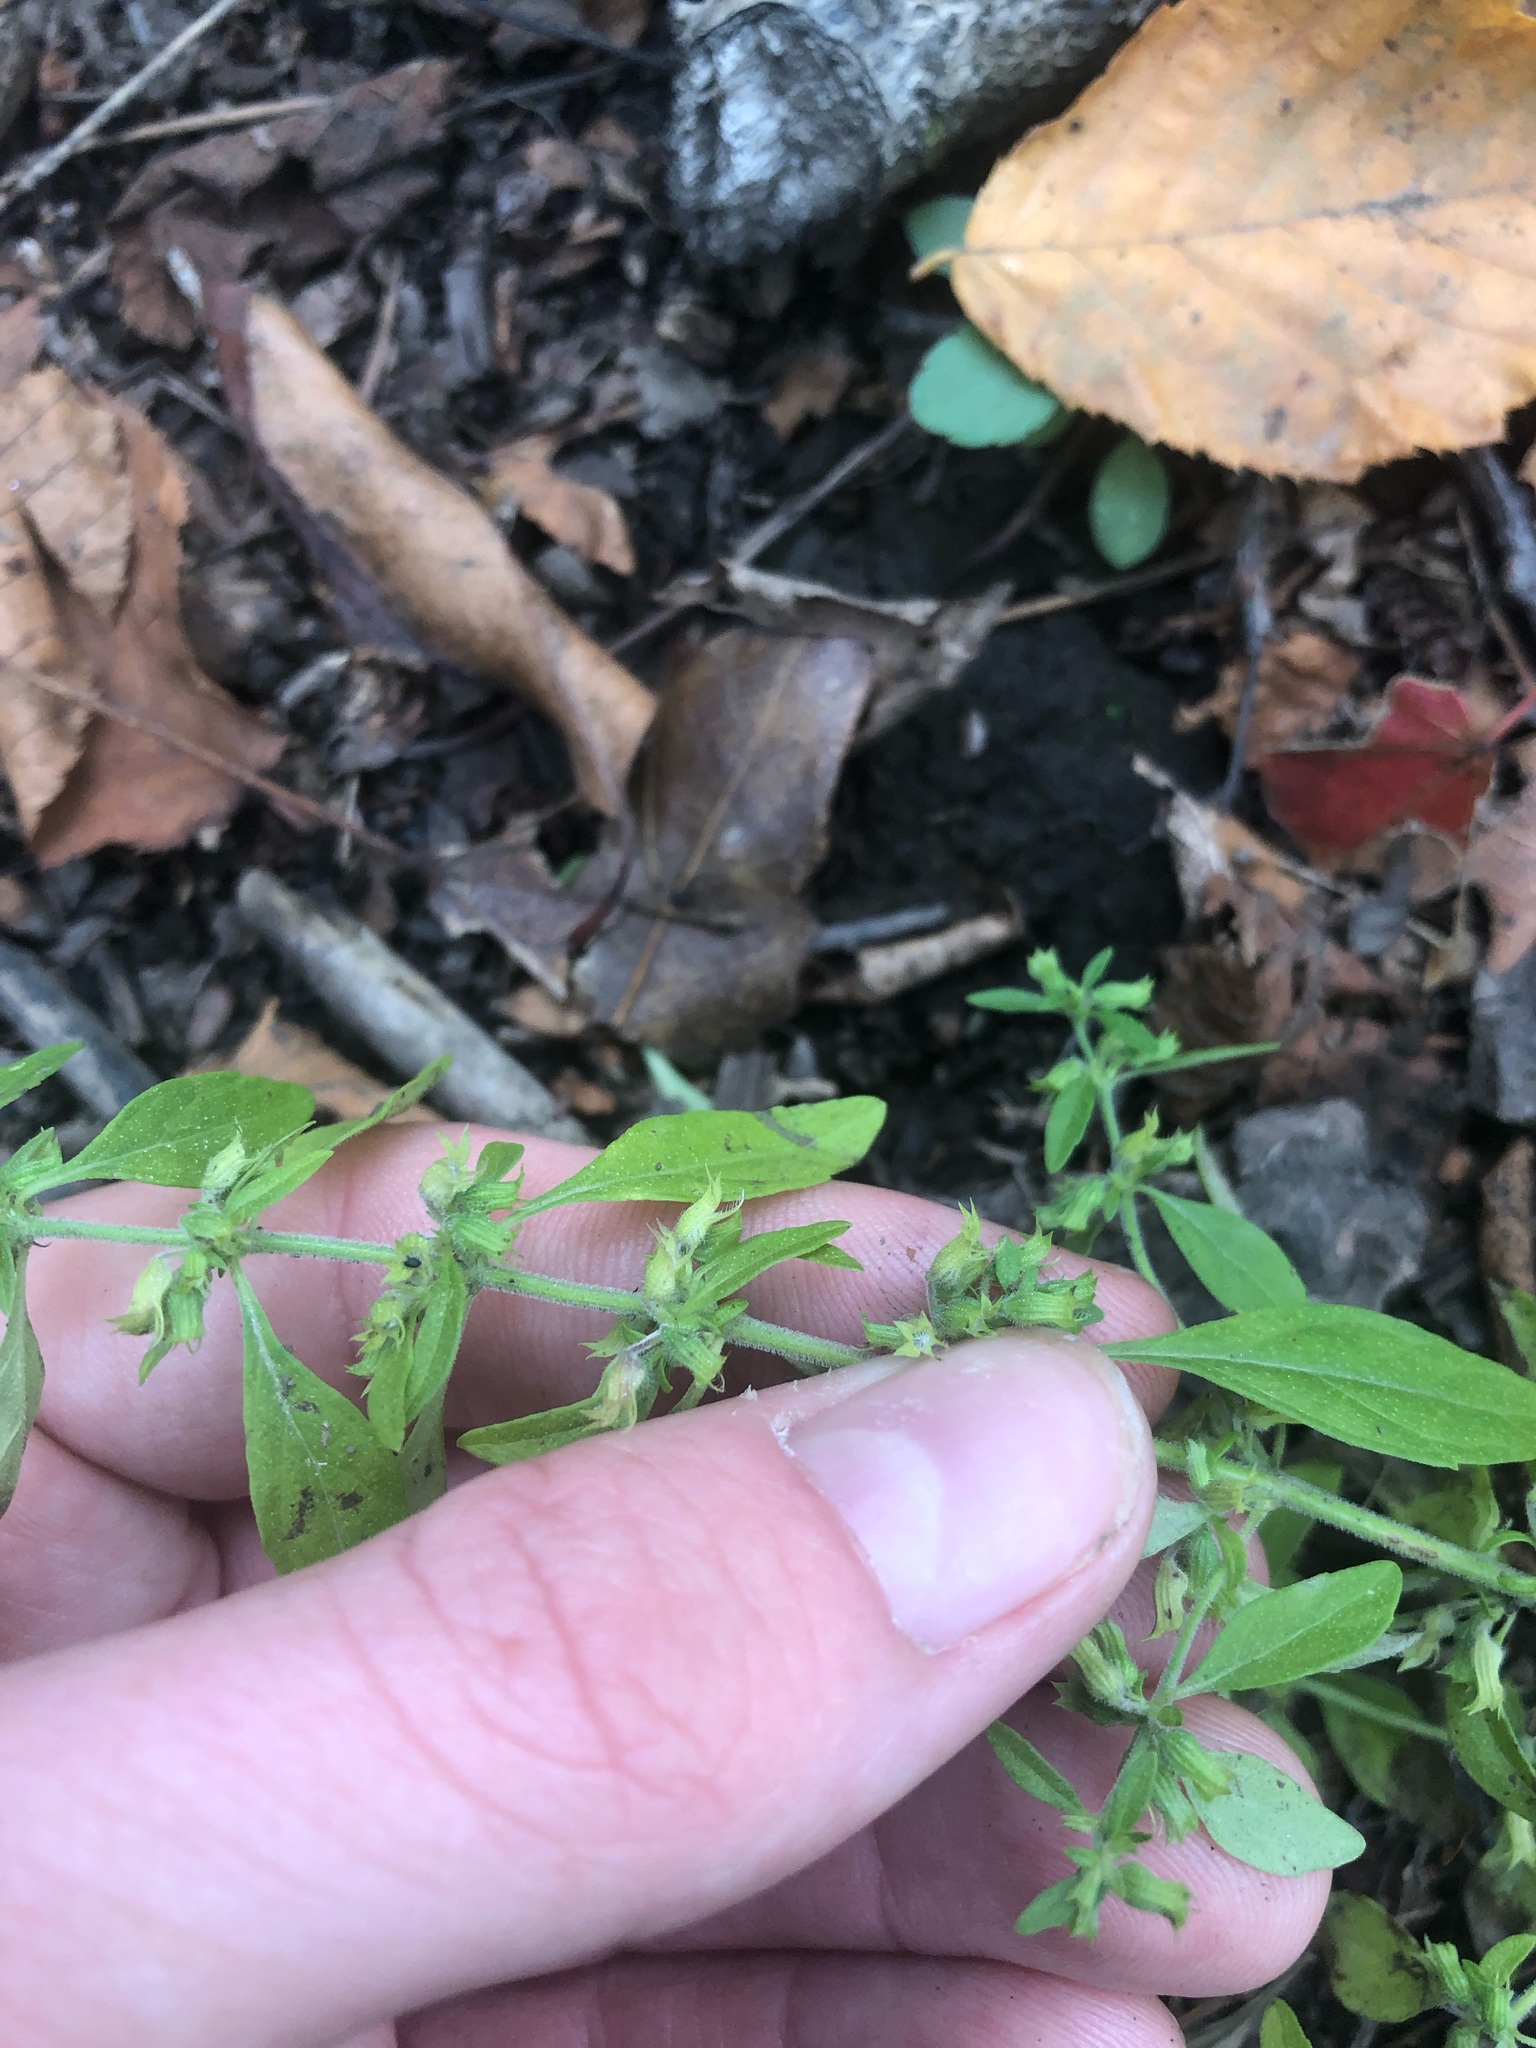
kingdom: Plantae
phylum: Tracheophyta
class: Magnoliopsida
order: Lamiales
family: Lamiaceae
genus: Hedeoma
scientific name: Hedeoma pulegioides
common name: American false pennyroyal
